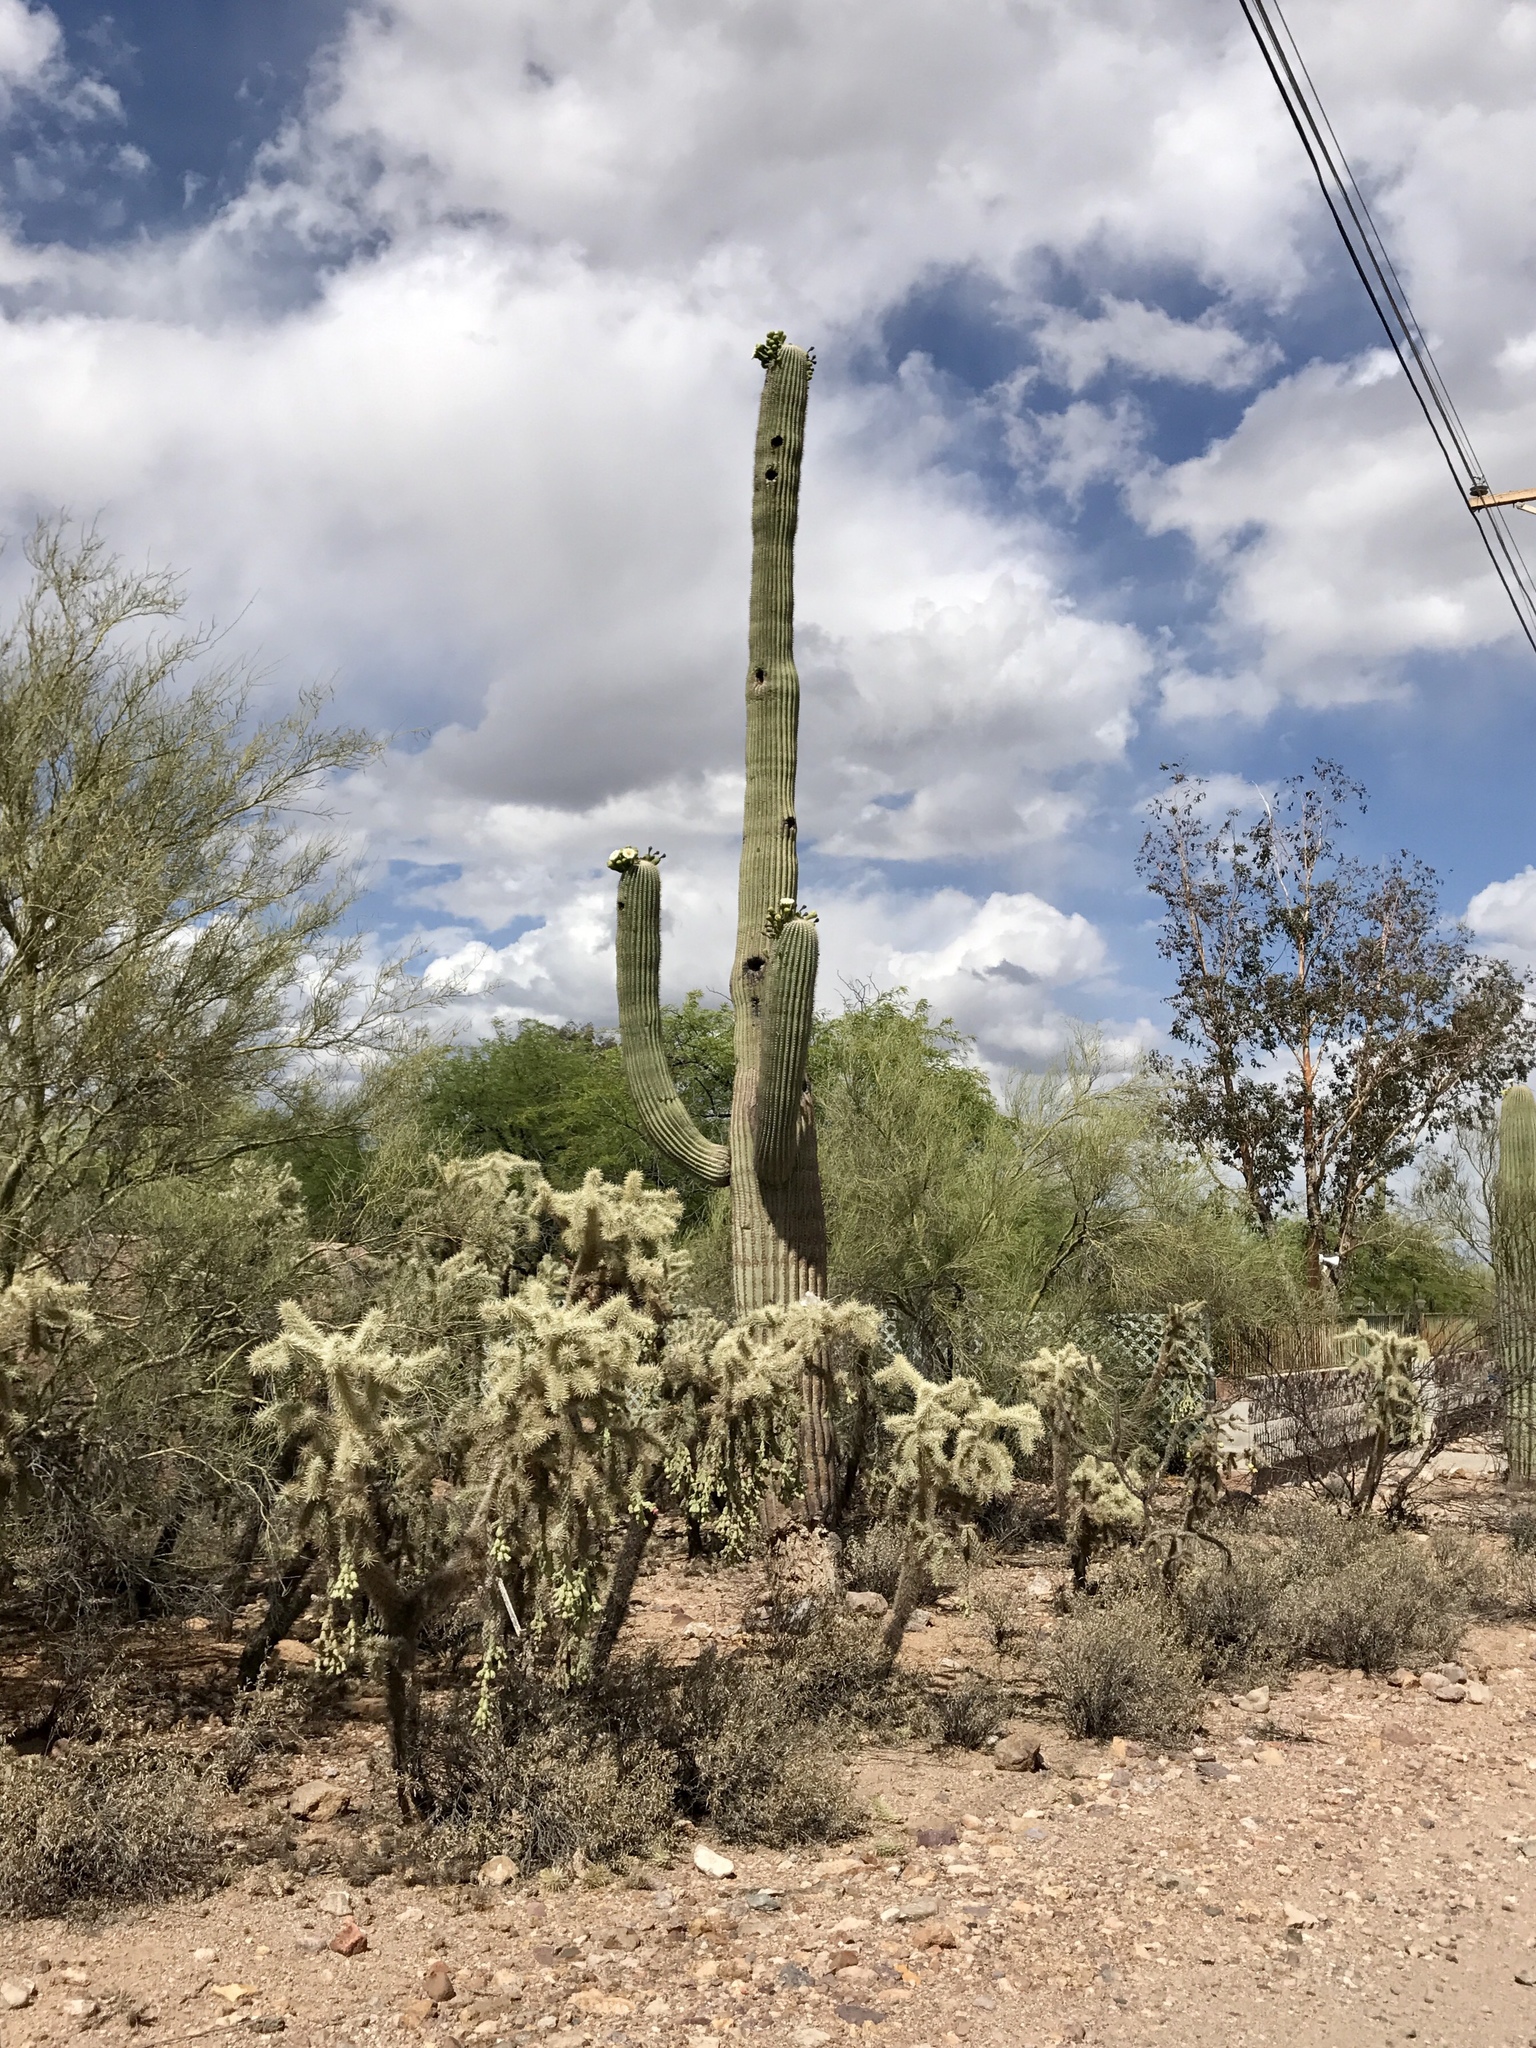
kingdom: Plantae
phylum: Tracheophyta
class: Magnoliopsida
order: Caryophyllales
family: Cactaceae
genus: Carnegiea
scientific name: Carnegiea gigantea
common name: Saguaro
